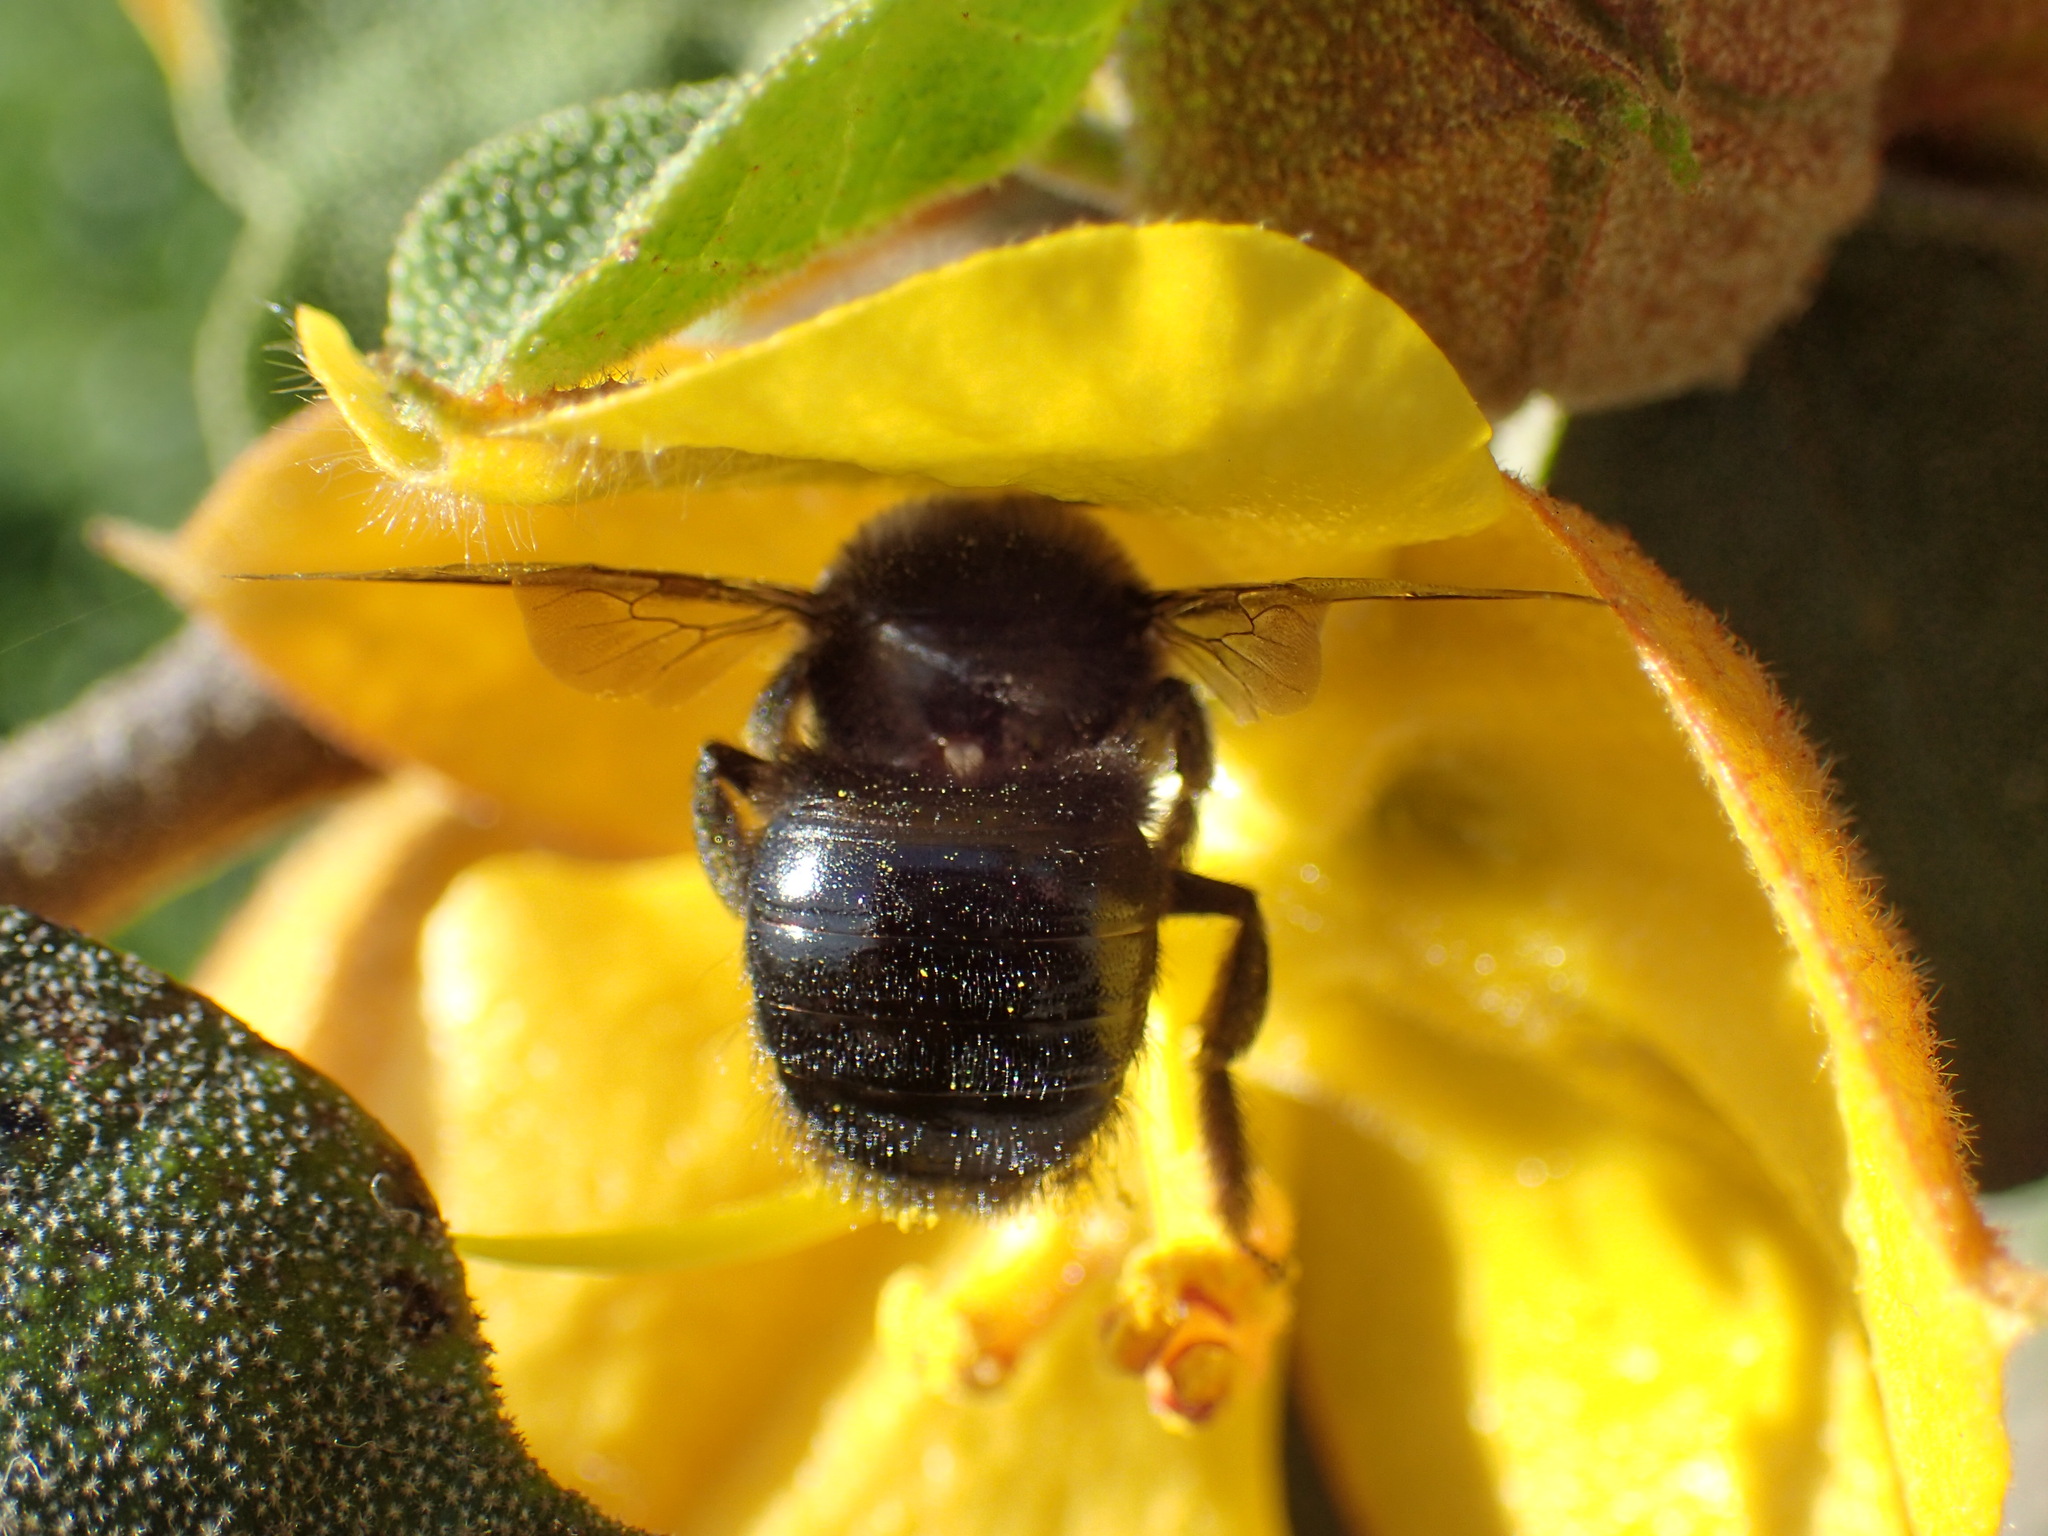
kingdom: Animalia
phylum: Arthropoda
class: Insecta
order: Hymenoptera
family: Apidae
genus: Xylocopa
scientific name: Xylocopa tabaniformis
